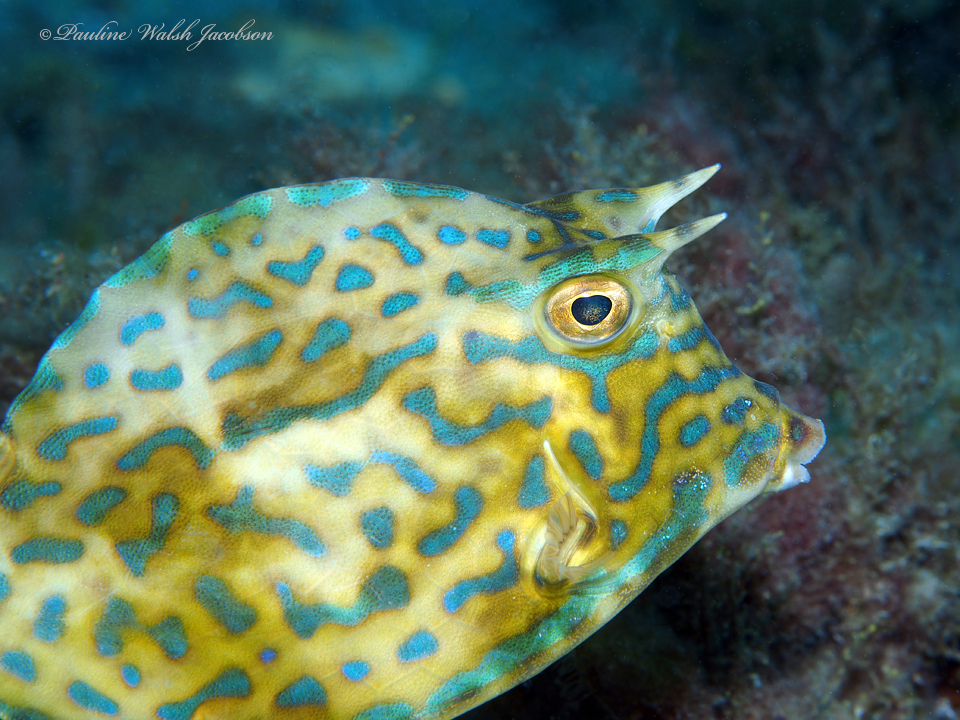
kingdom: Animalia
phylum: Chordata
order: Tetraodontiformes
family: Ostraciidae
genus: Acanthostracion
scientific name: Acanthostracion quadricornis
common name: Scrawled cowfish
